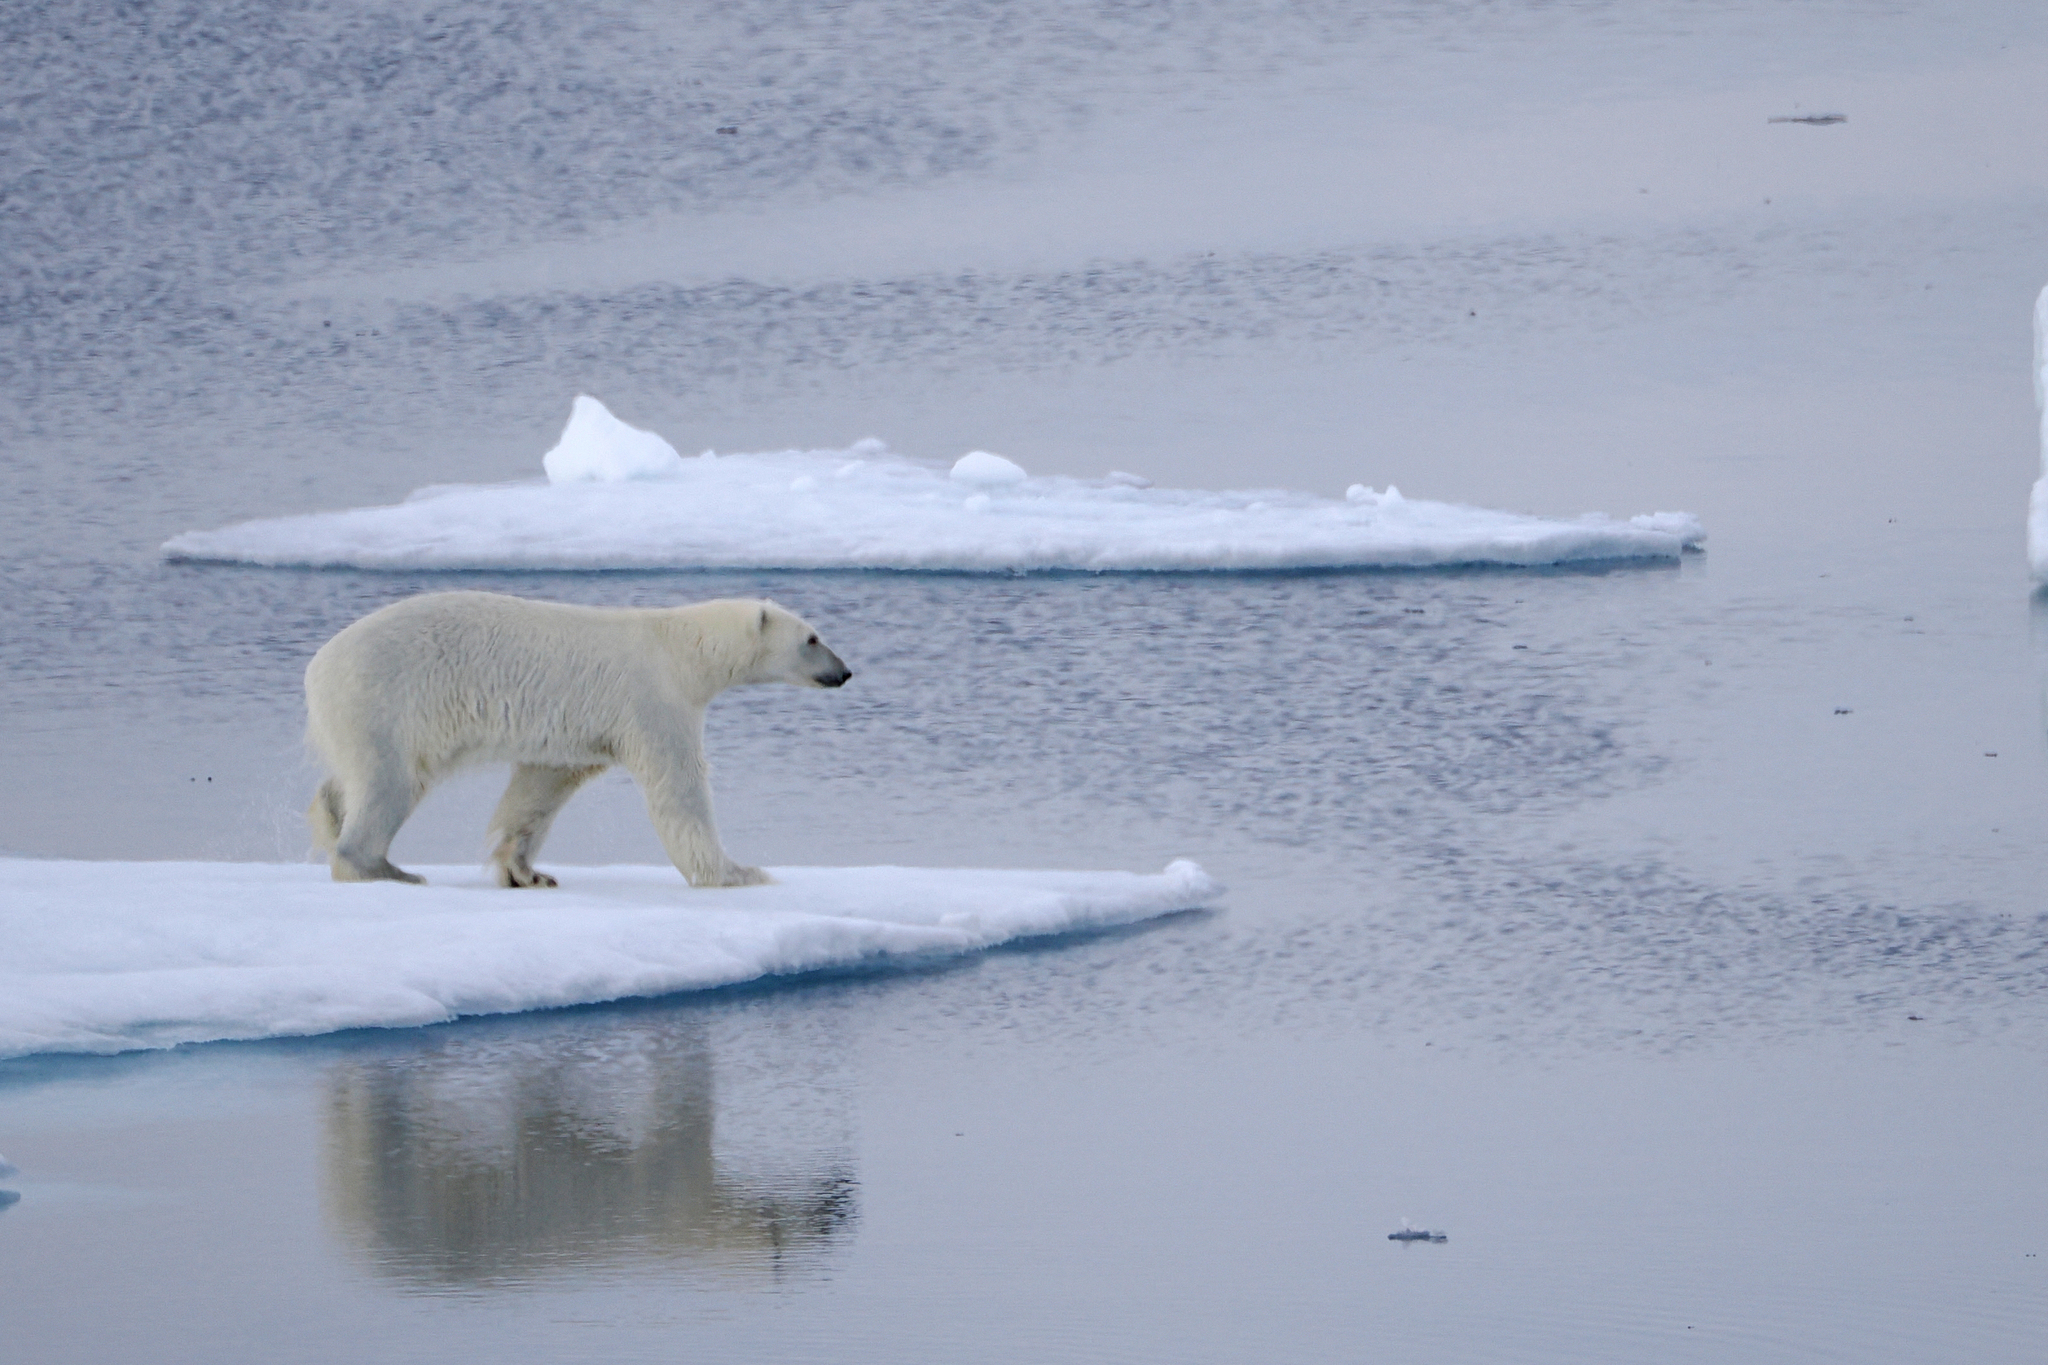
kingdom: Animalia
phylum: Chordata
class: Mammalia
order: Carnivora
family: Ursidae
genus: Ursus
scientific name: Ursus maritimus
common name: Polar bear
